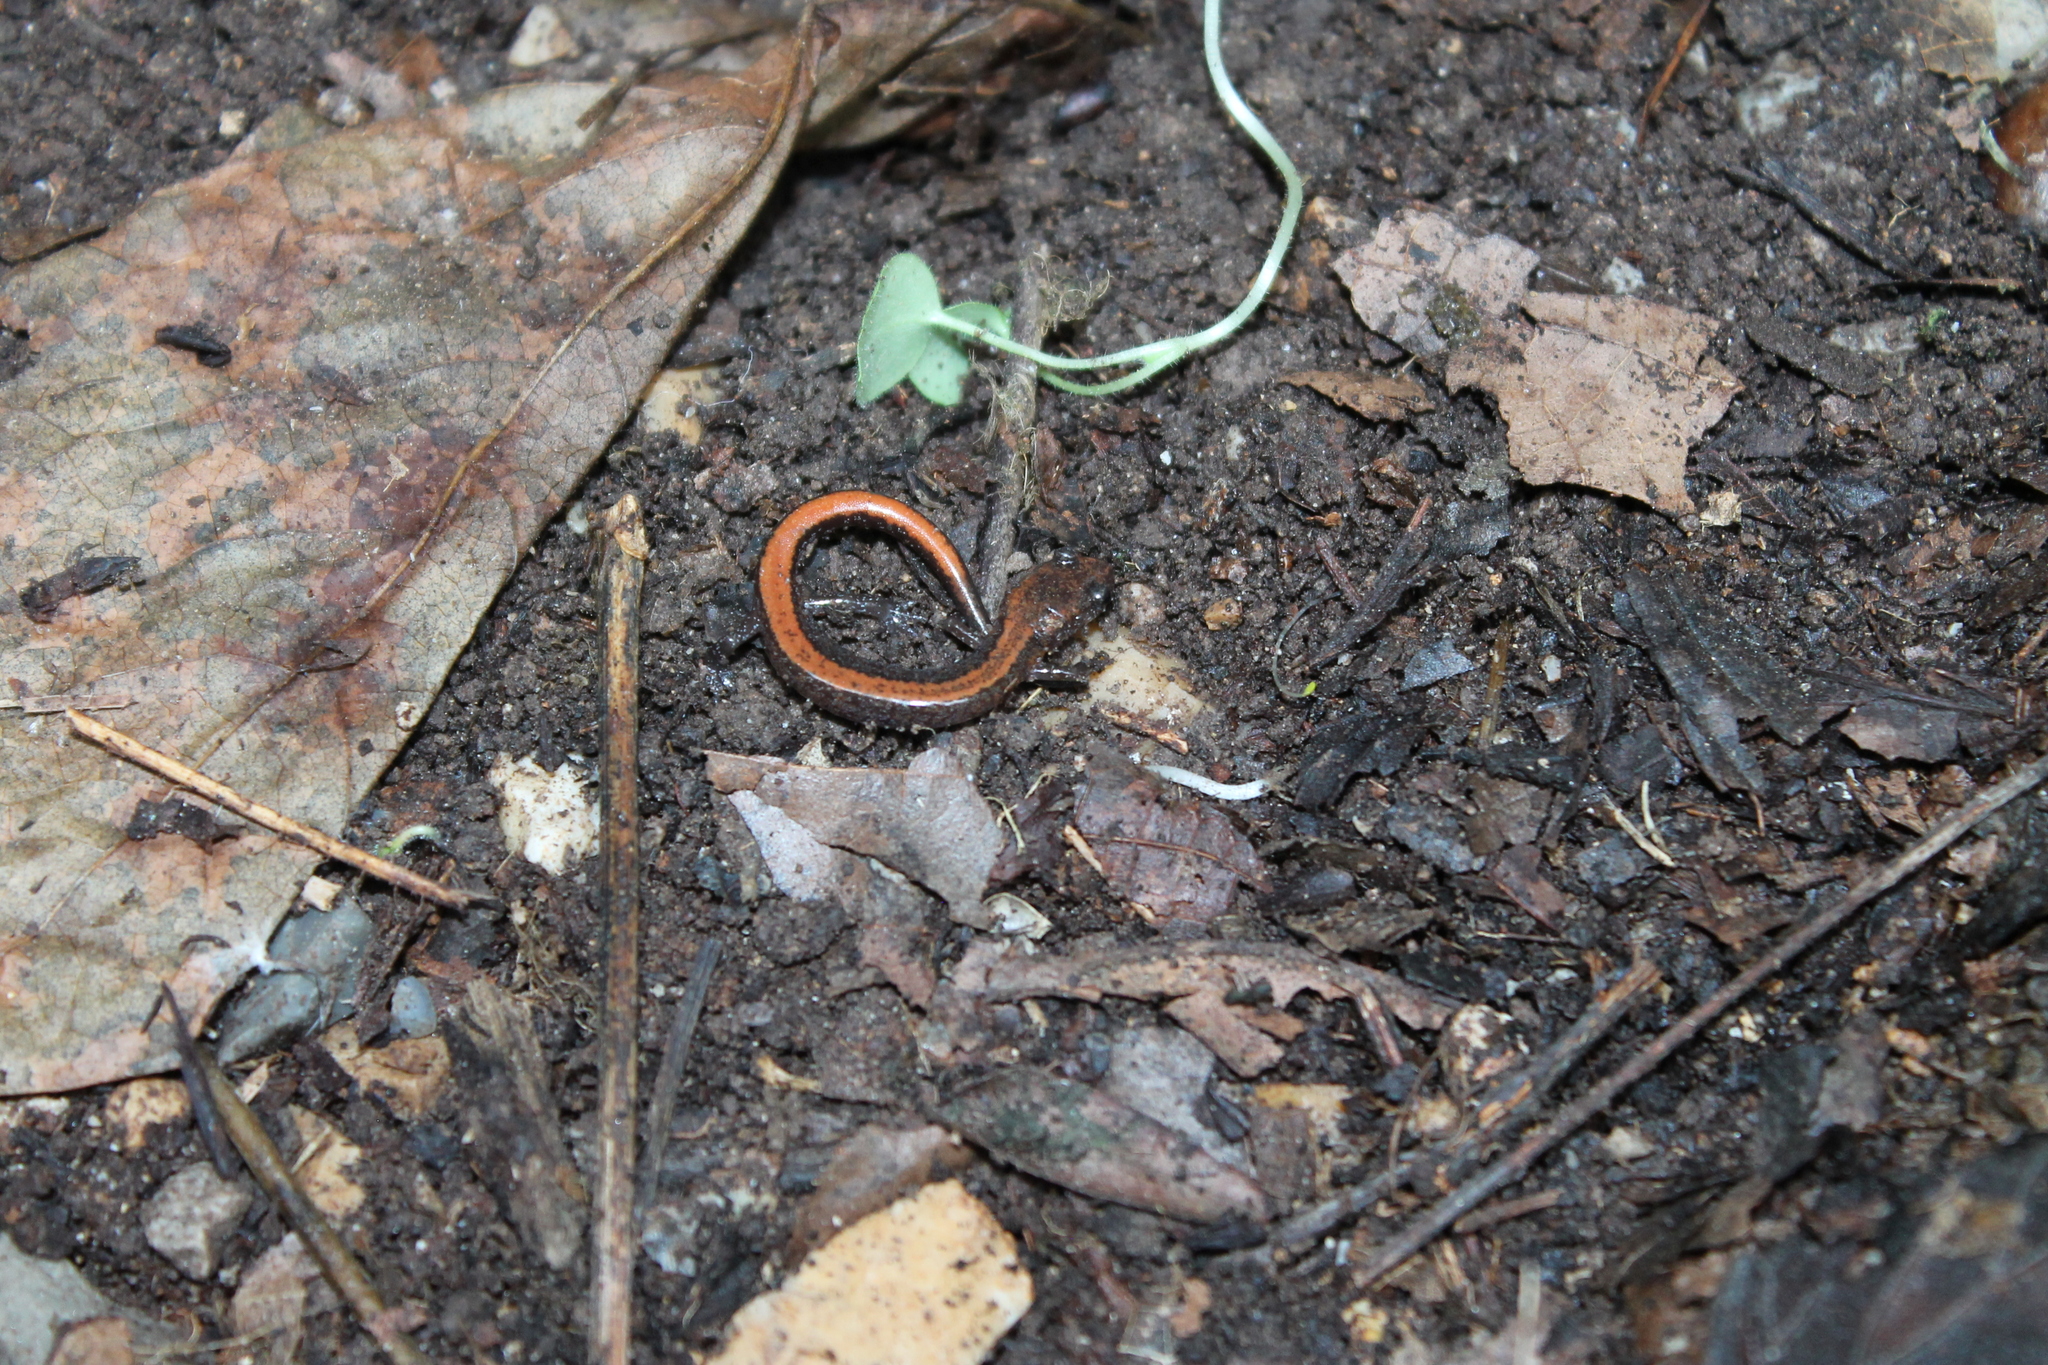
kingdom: Animalia
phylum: Chordata
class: Amphibia
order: Caudata
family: Plethodontidae
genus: Plethodon
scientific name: Plethodon dorsalis
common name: Northern zigzag salamander
